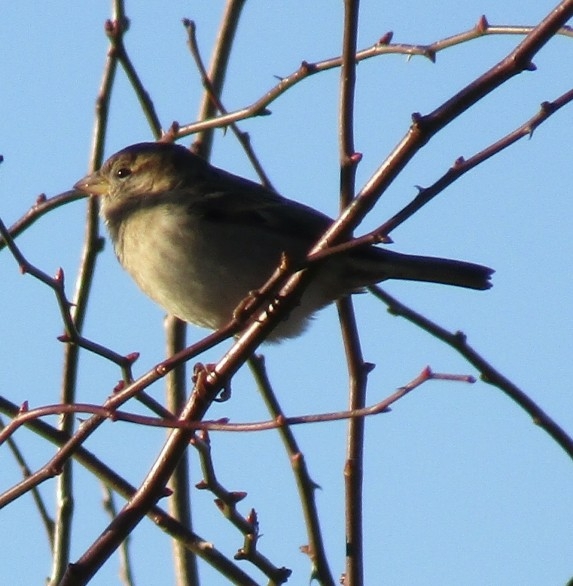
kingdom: Animalia
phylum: Chordata
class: Aves
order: Passeriformes
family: Passeridae
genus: Passer
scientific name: Passer domesticus
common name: House sparrow
